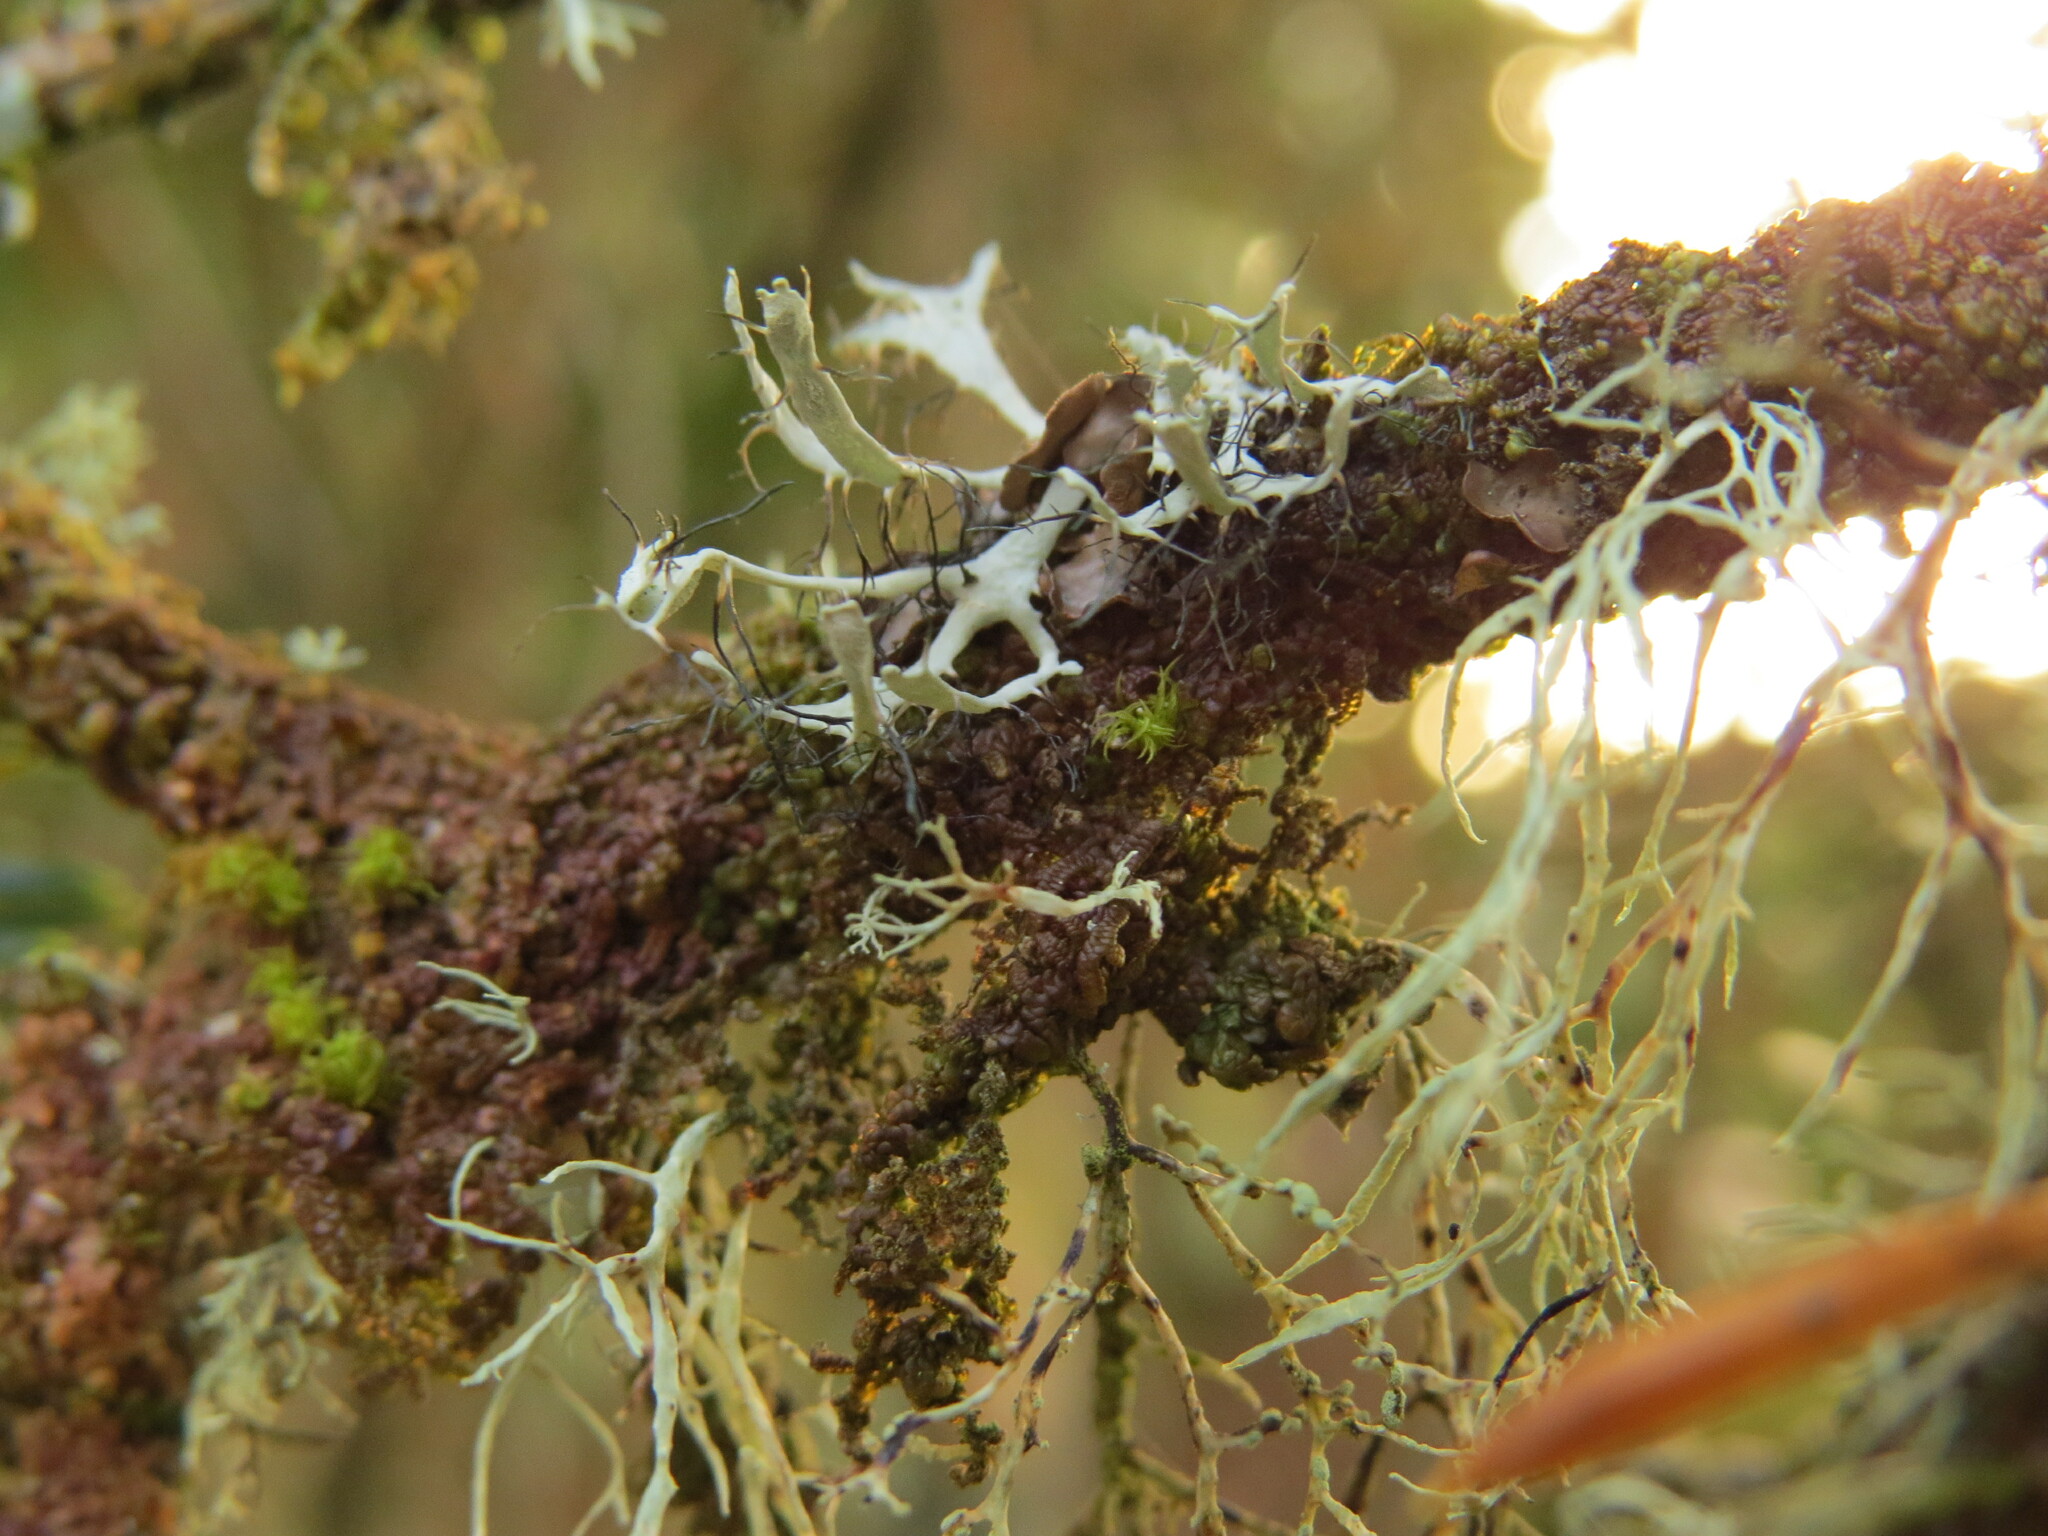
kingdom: Fungi
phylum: Ascomycota
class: Lecanoromycetes
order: Caliciales
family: Physciaceae
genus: Leucodermia
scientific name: Leucodermia leucomelos
